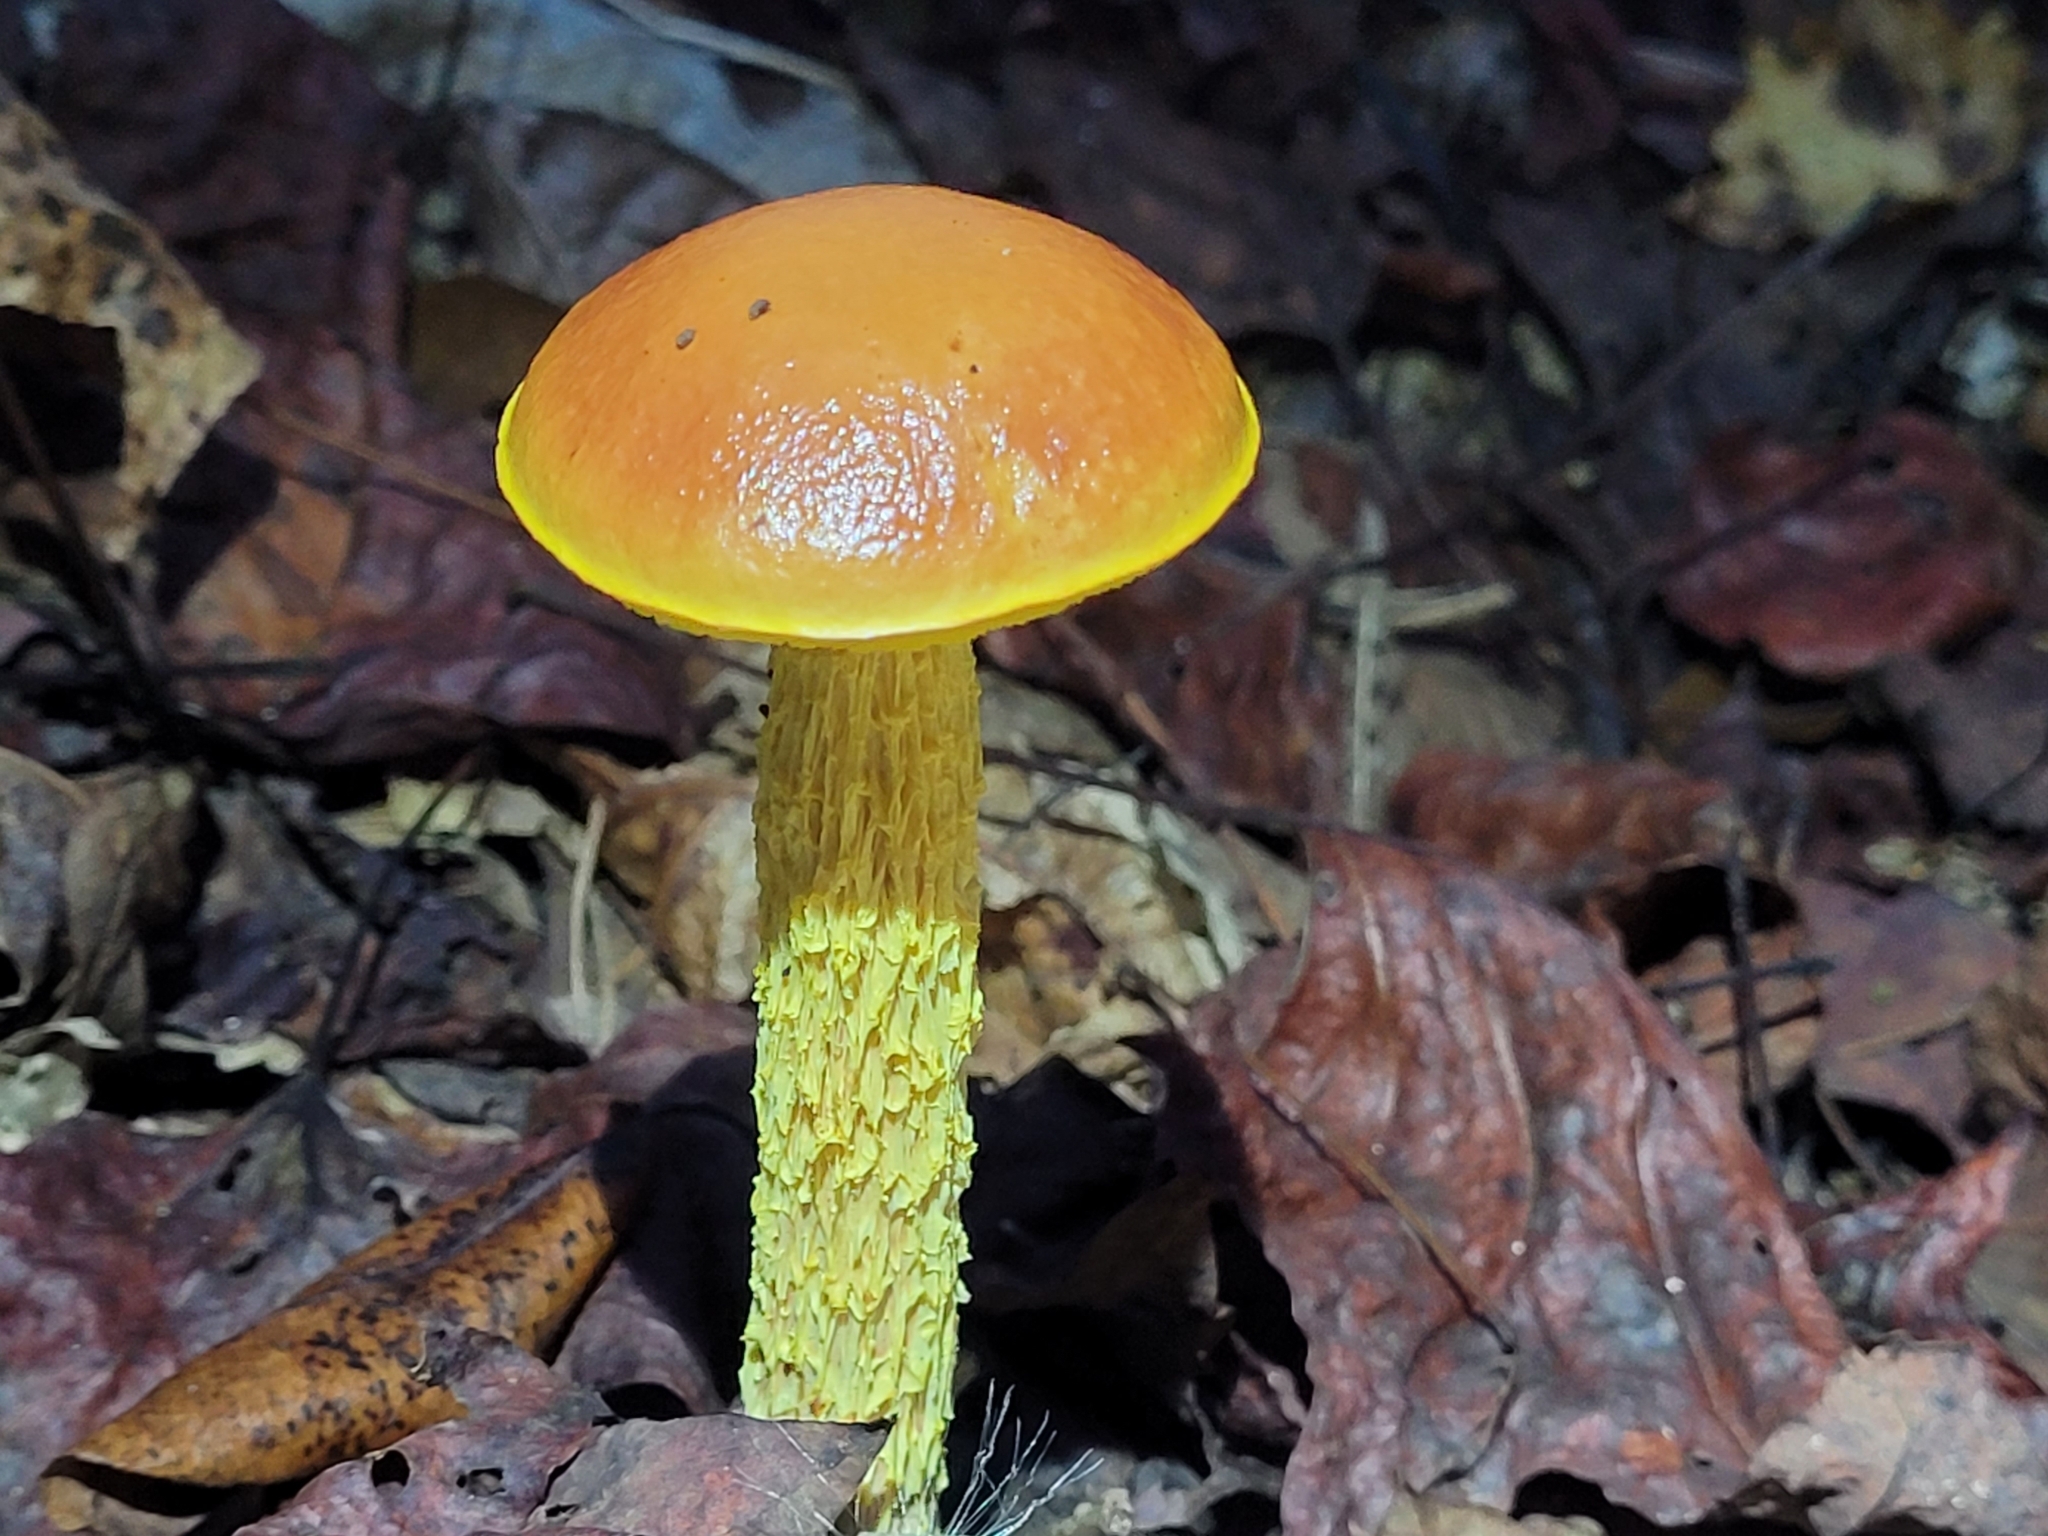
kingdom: Fungi
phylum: Basidiomycota
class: Agaricomycetes
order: Boletales
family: Boletaceae
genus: Aureoboletus
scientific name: Aureoboletus betula
